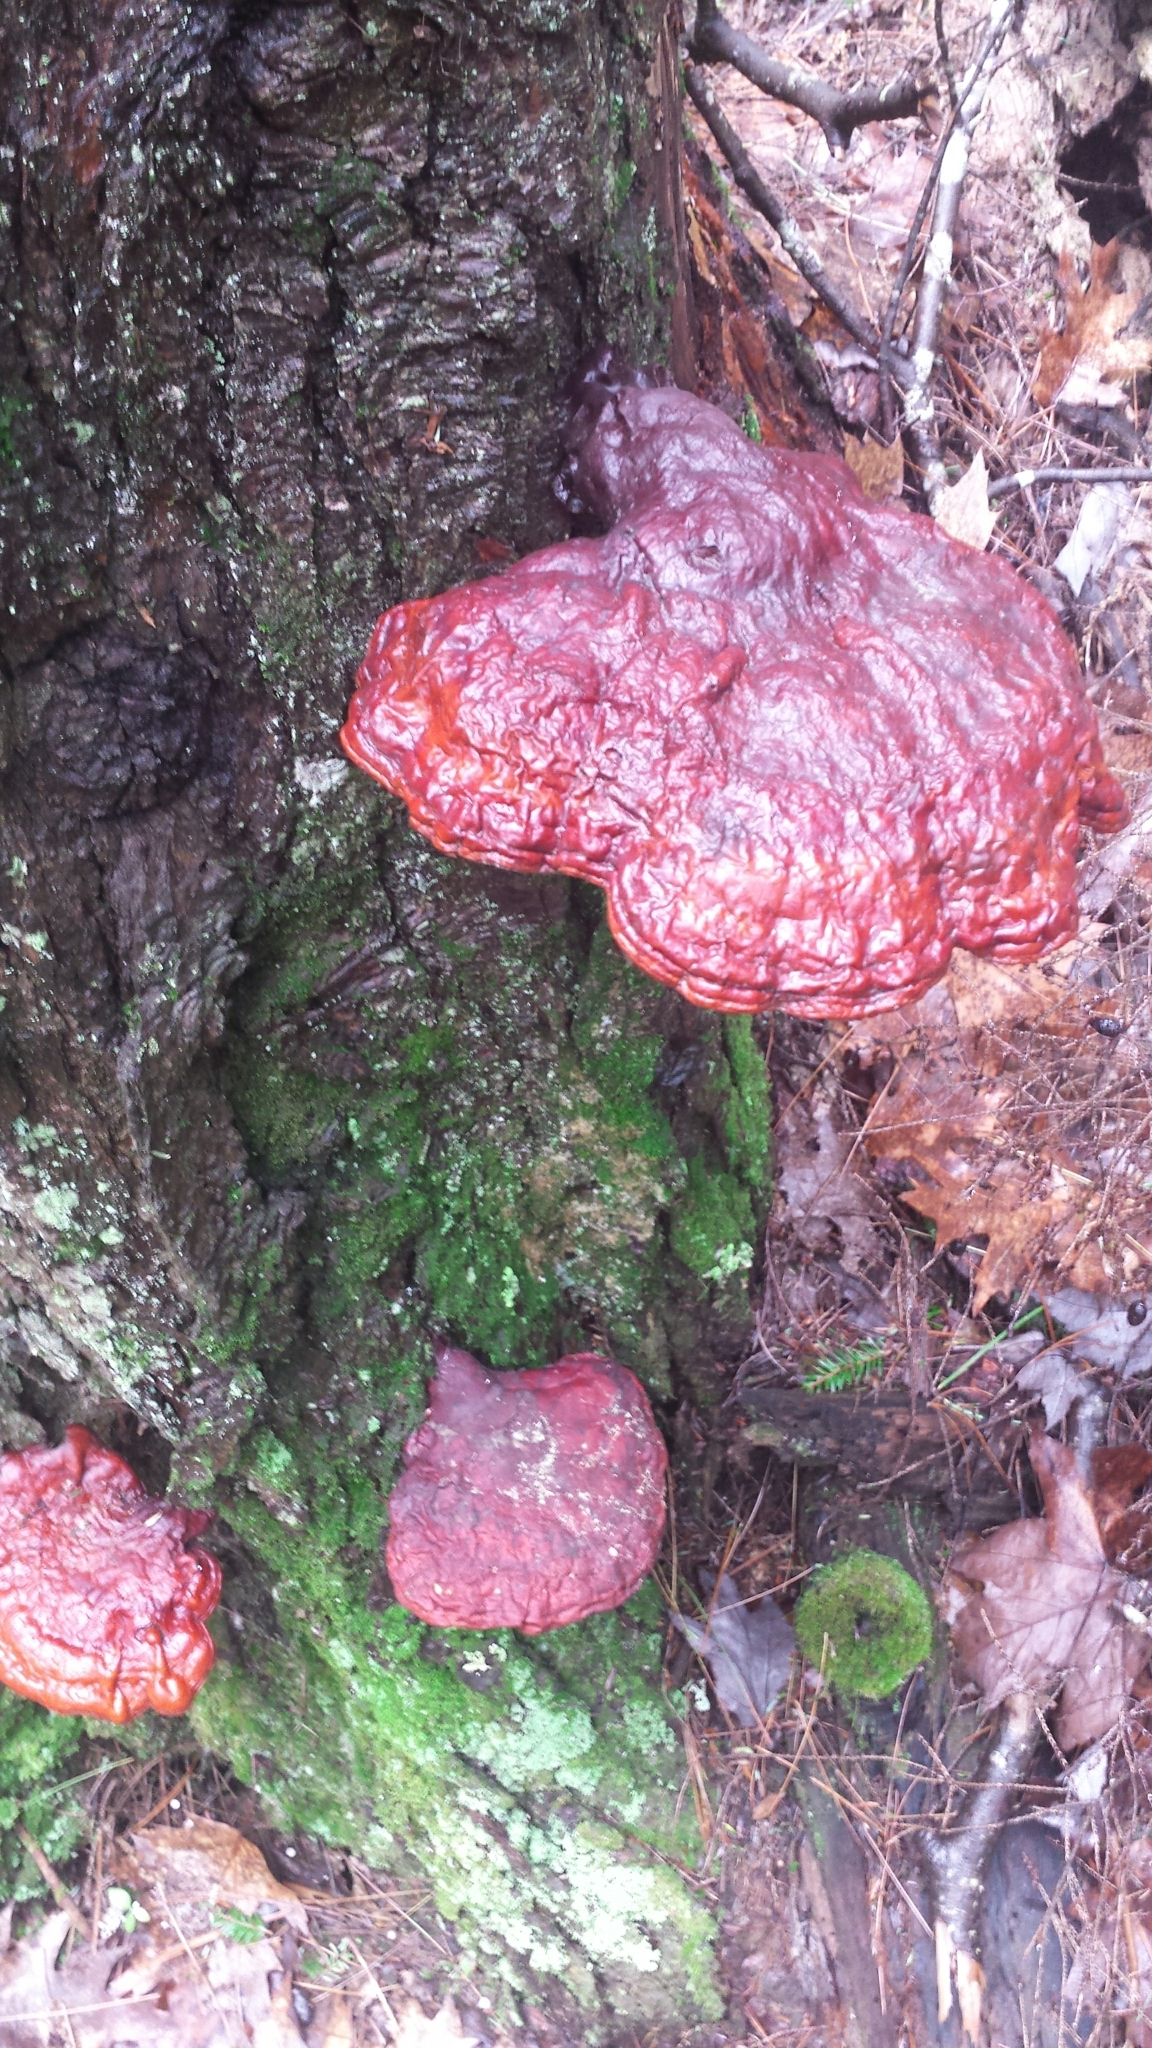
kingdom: Fungi
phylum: Basidiomycota
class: Agaricomycetes
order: Polyporales
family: Polyporaceae
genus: Ganoderma
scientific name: Ganoderma tsugae
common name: Hemlock varnish shelf
